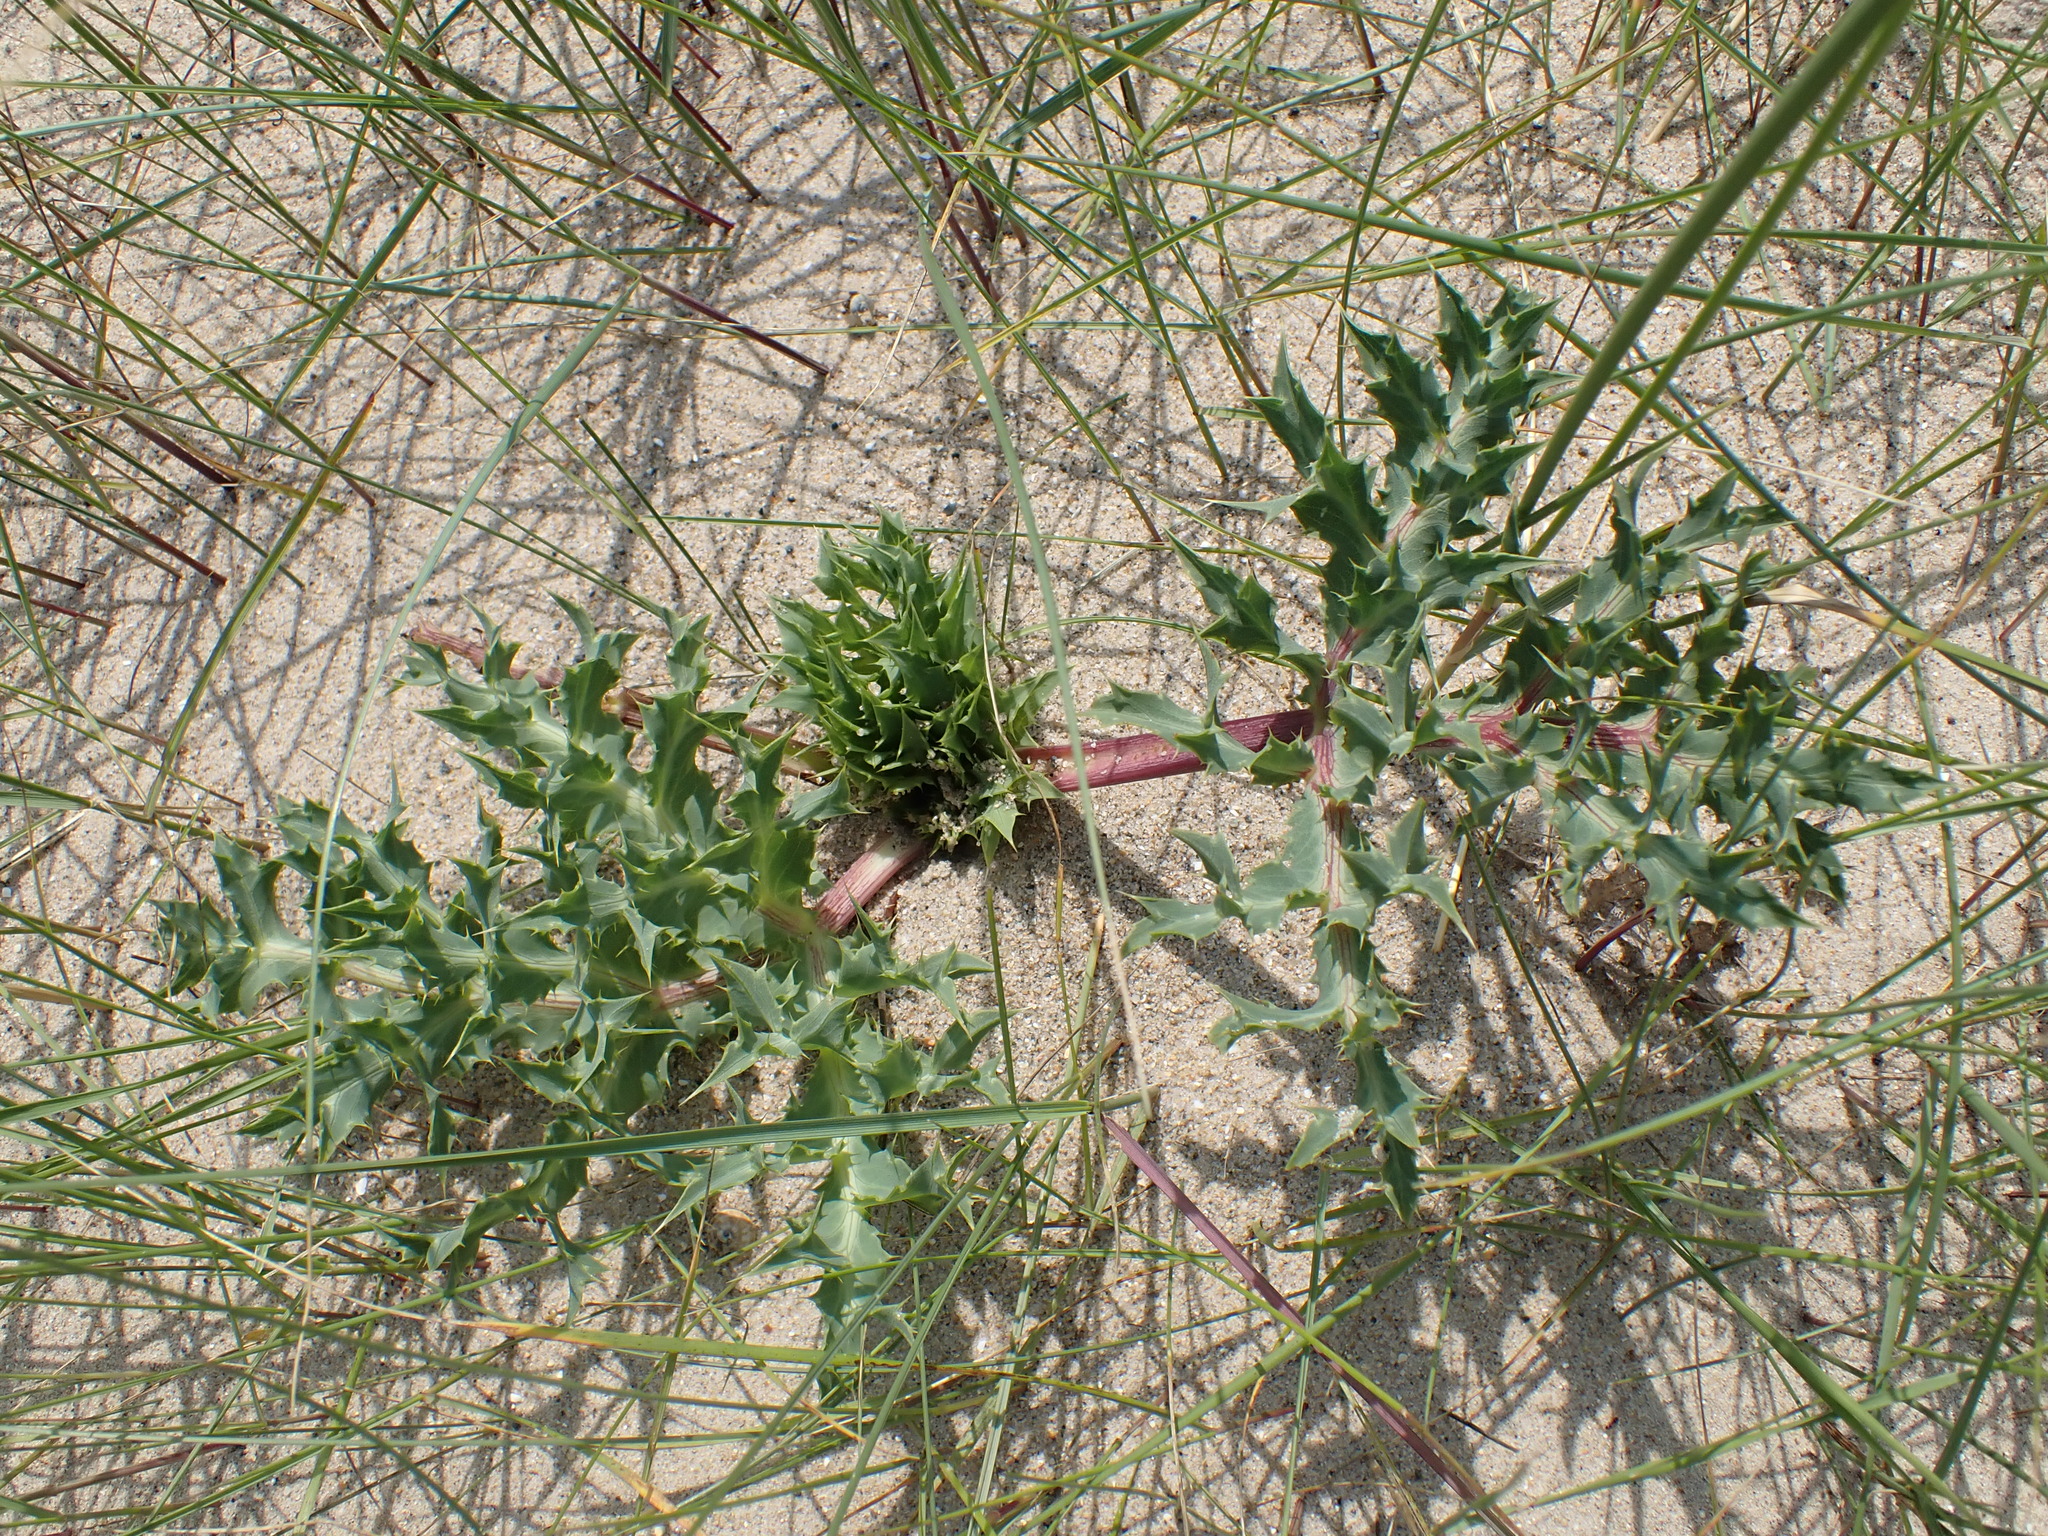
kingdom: Plantae
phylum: Tracheophyta
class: Magnoliopsida
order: Apiales
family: Apiaceae
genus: Eryngium
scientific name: Eryngium campestre
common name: Field eryngo
